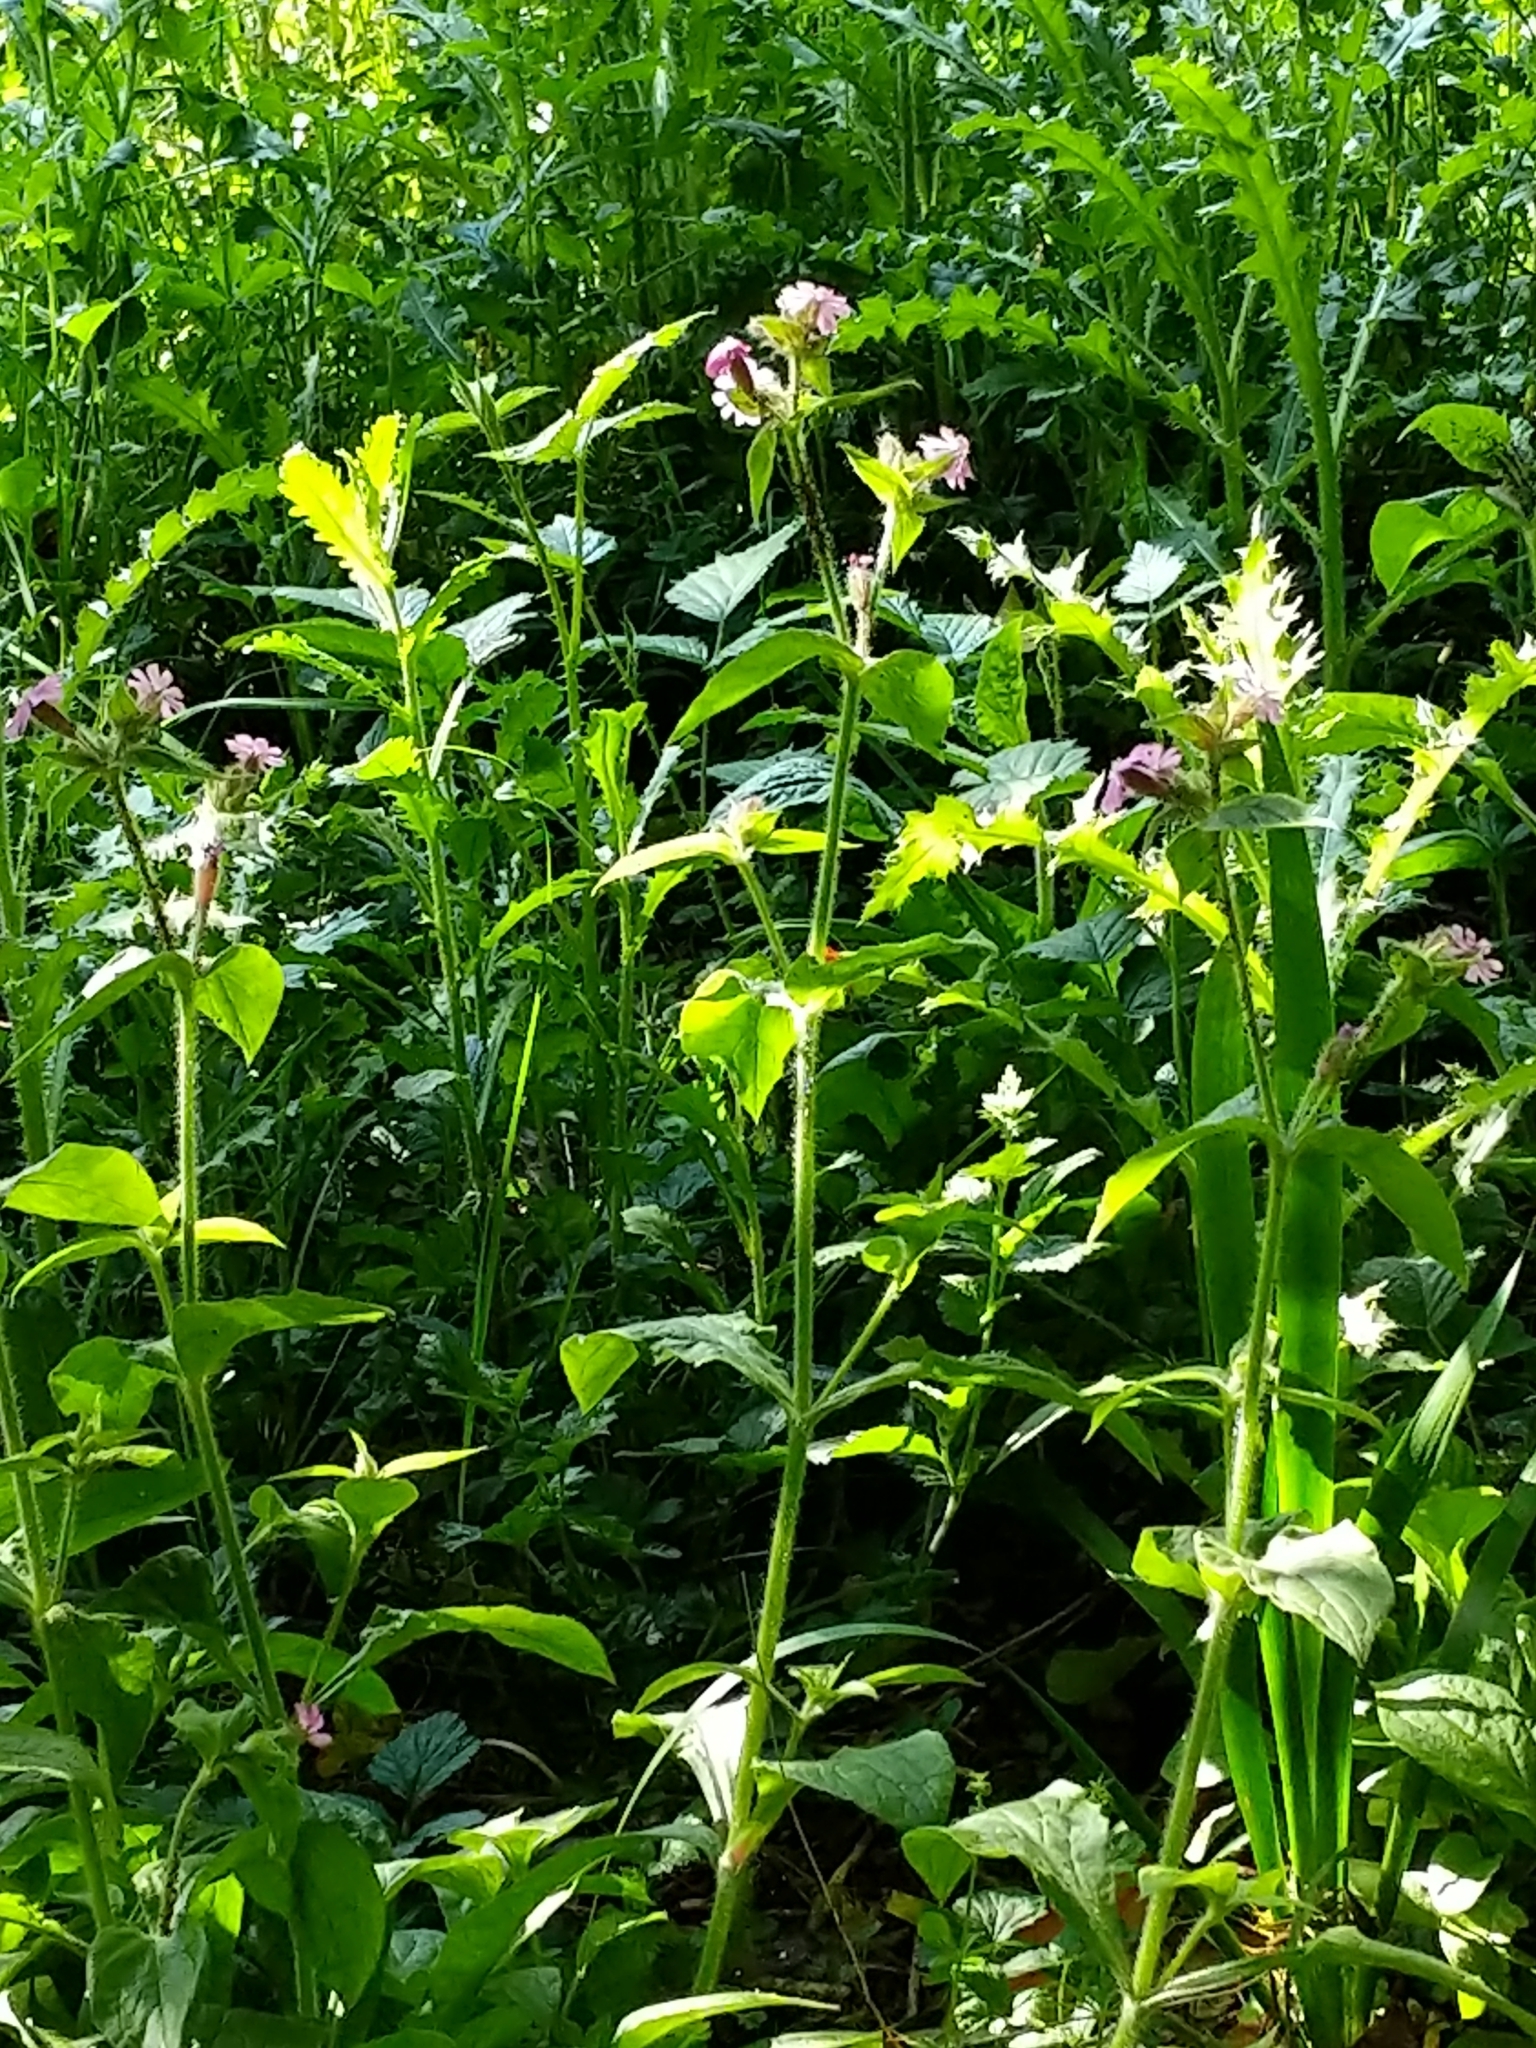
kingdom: Plantae
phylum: Tracheophyta
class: Magnoliopsida
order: Caryophyllales
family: Caryophyllaceae
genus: Silene
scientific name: Silene dioica
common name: Red campion
